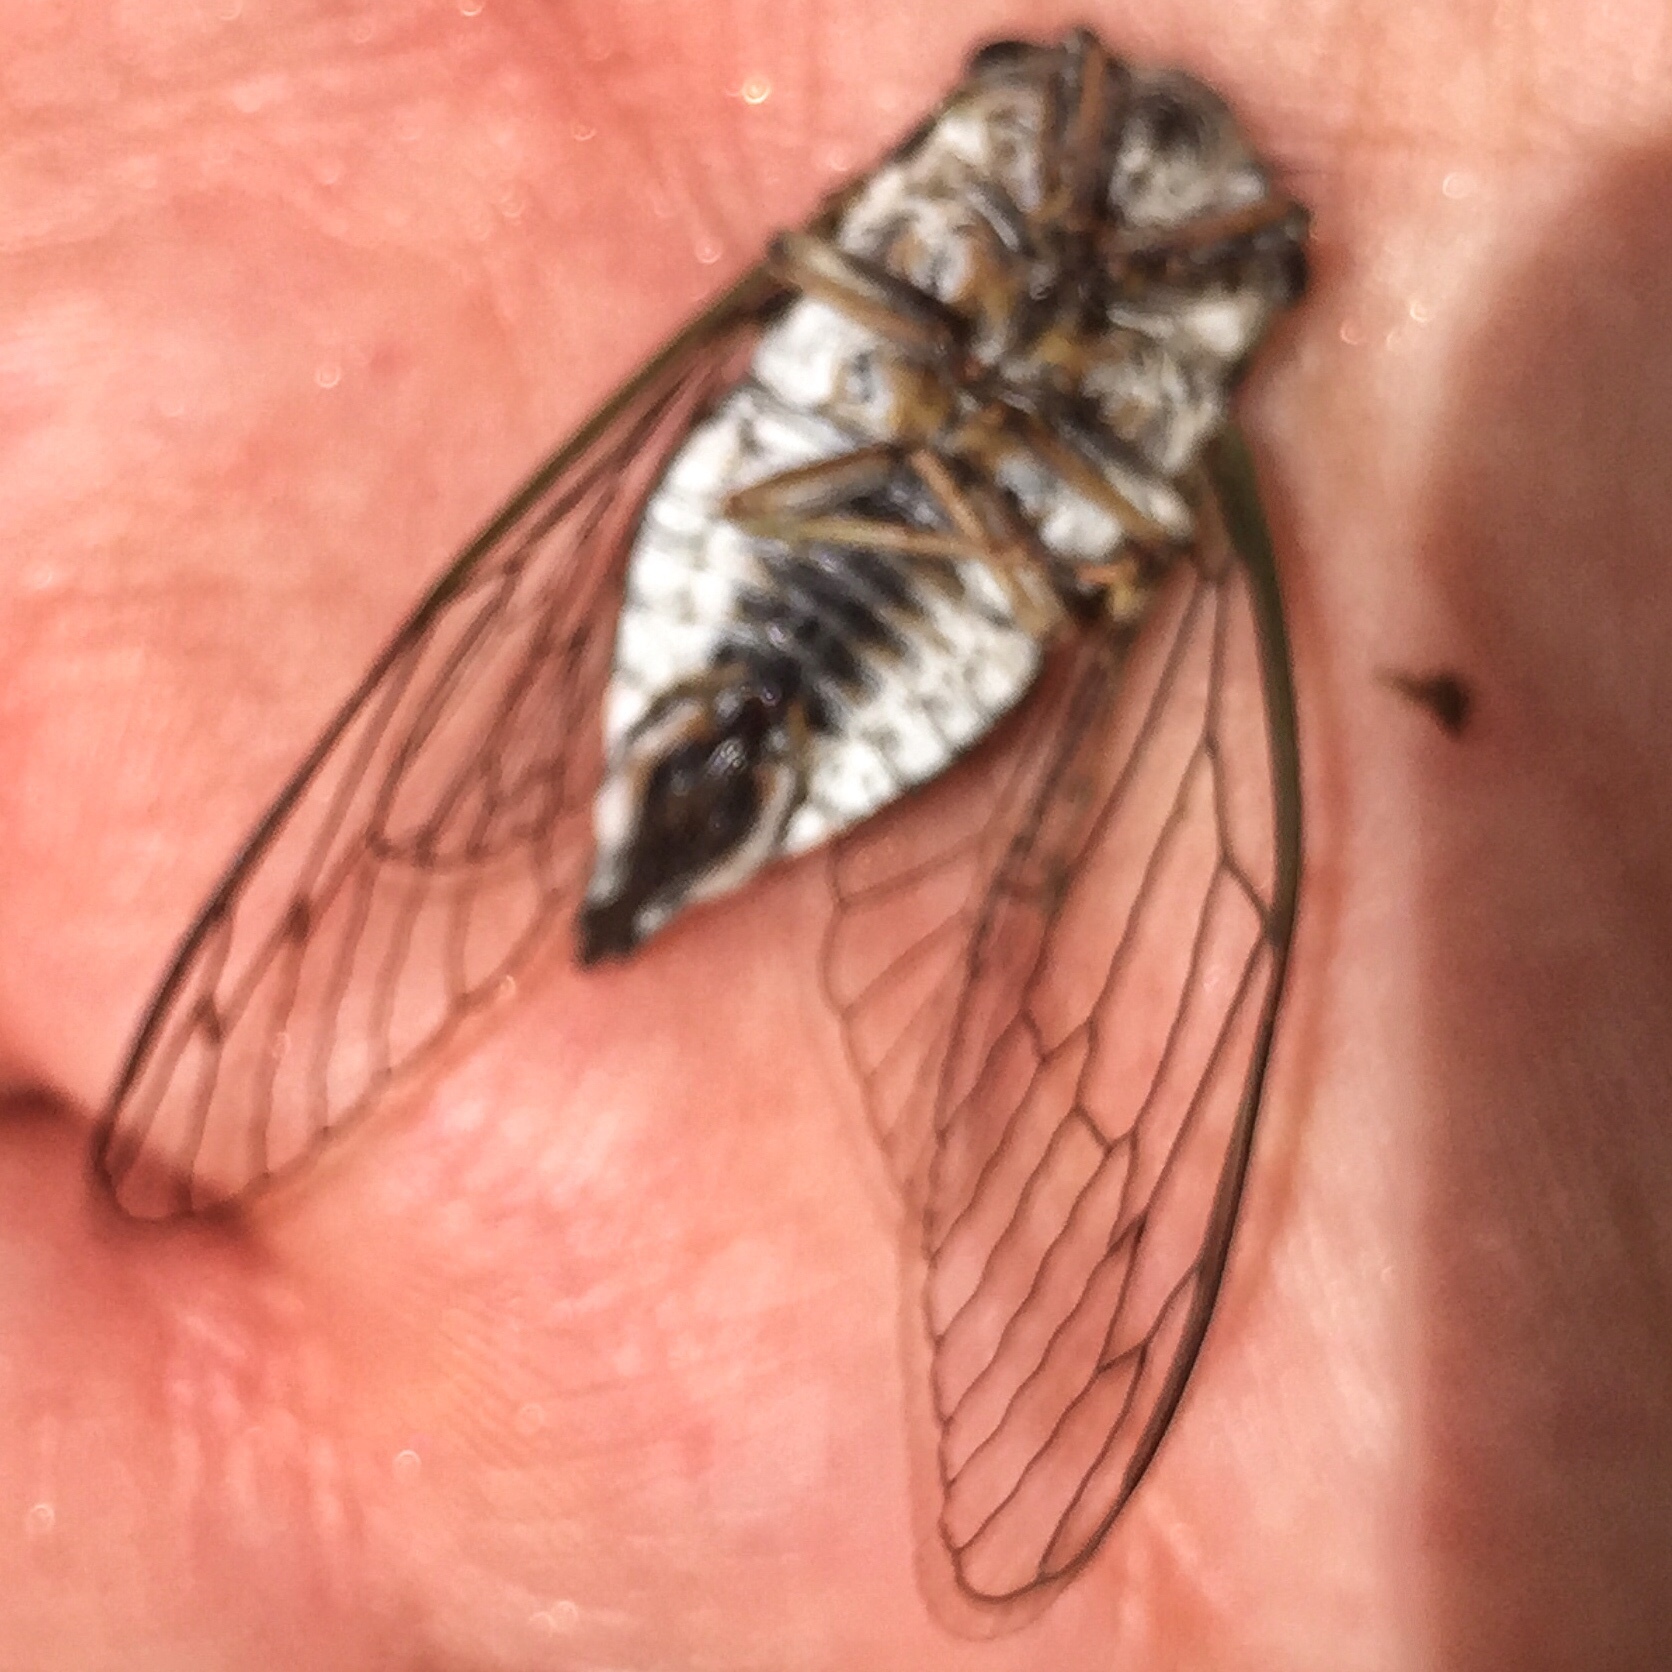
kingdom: Animalia
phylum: Arthropoda
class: Insecta
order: Hemiptera
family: Cicadidae
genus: Neotibicen
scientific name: Neotibicen canicularis
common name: God-day cicada
